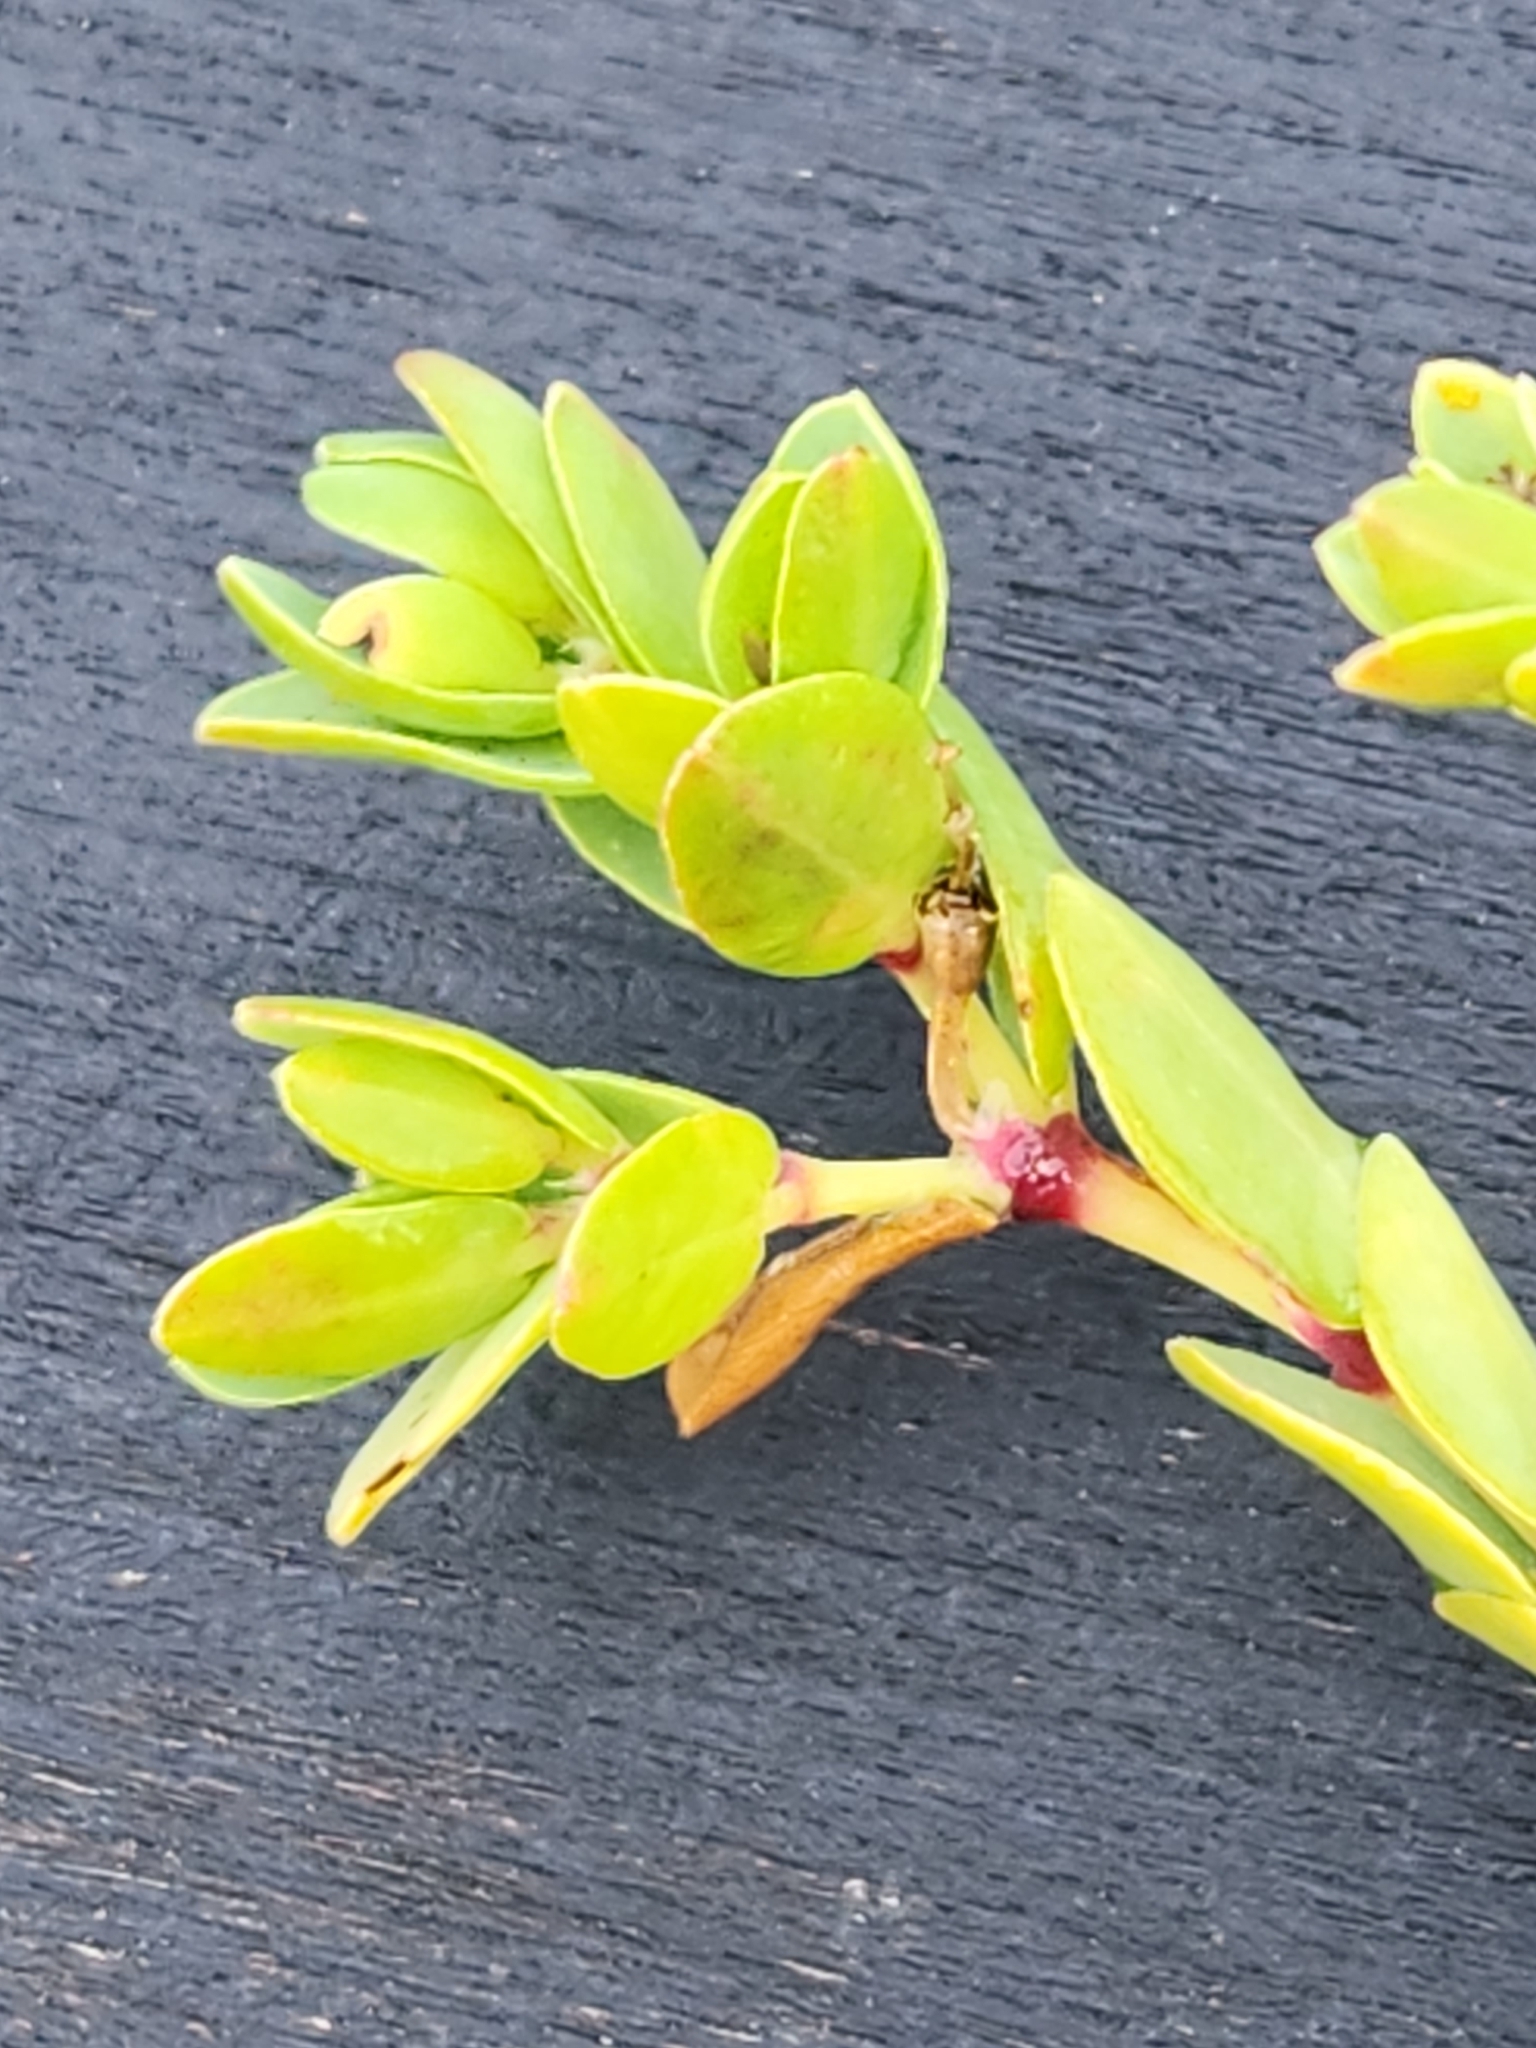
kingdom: Plantae
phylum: Tracheophyta
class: Magnoliopsida
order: Malpighiales
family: Euphorbiaceae
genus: Euphorbia
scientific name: Euphorbia mesembryanthemifolia
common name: Coastal beach sandmat
